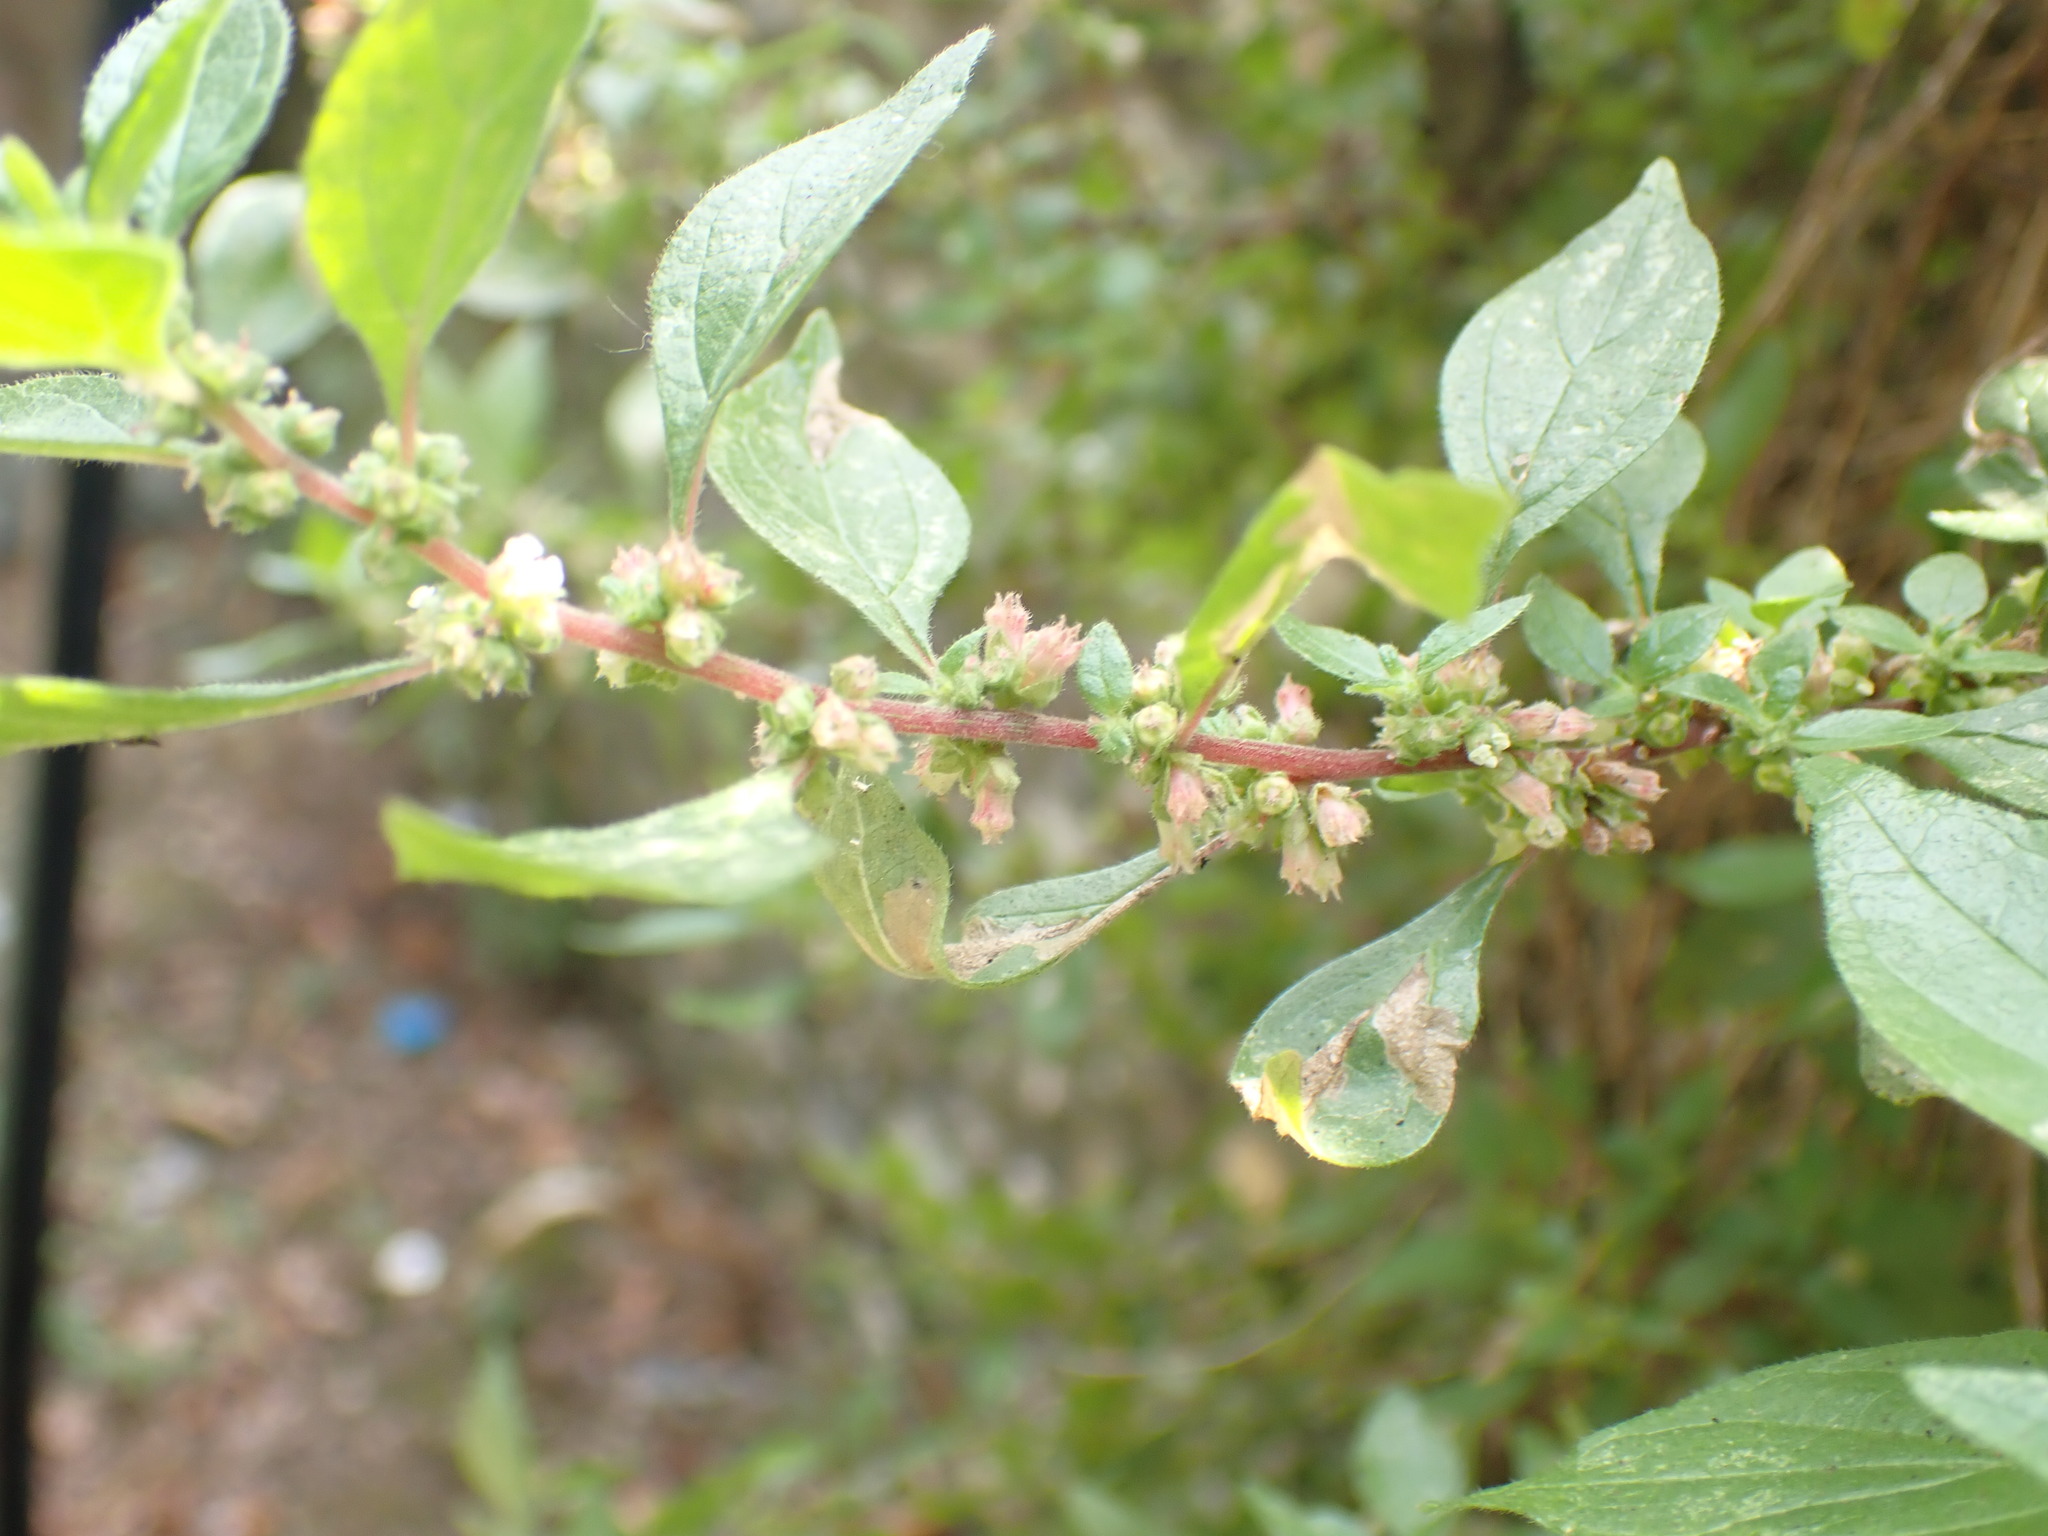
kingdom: Plantae
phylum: Tracheophyta
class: Magnoliopsida
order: Rosales
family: Urticaceae
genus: Parietaria
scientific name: Parietaria judaica
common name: Pellitory-of-the-wall
